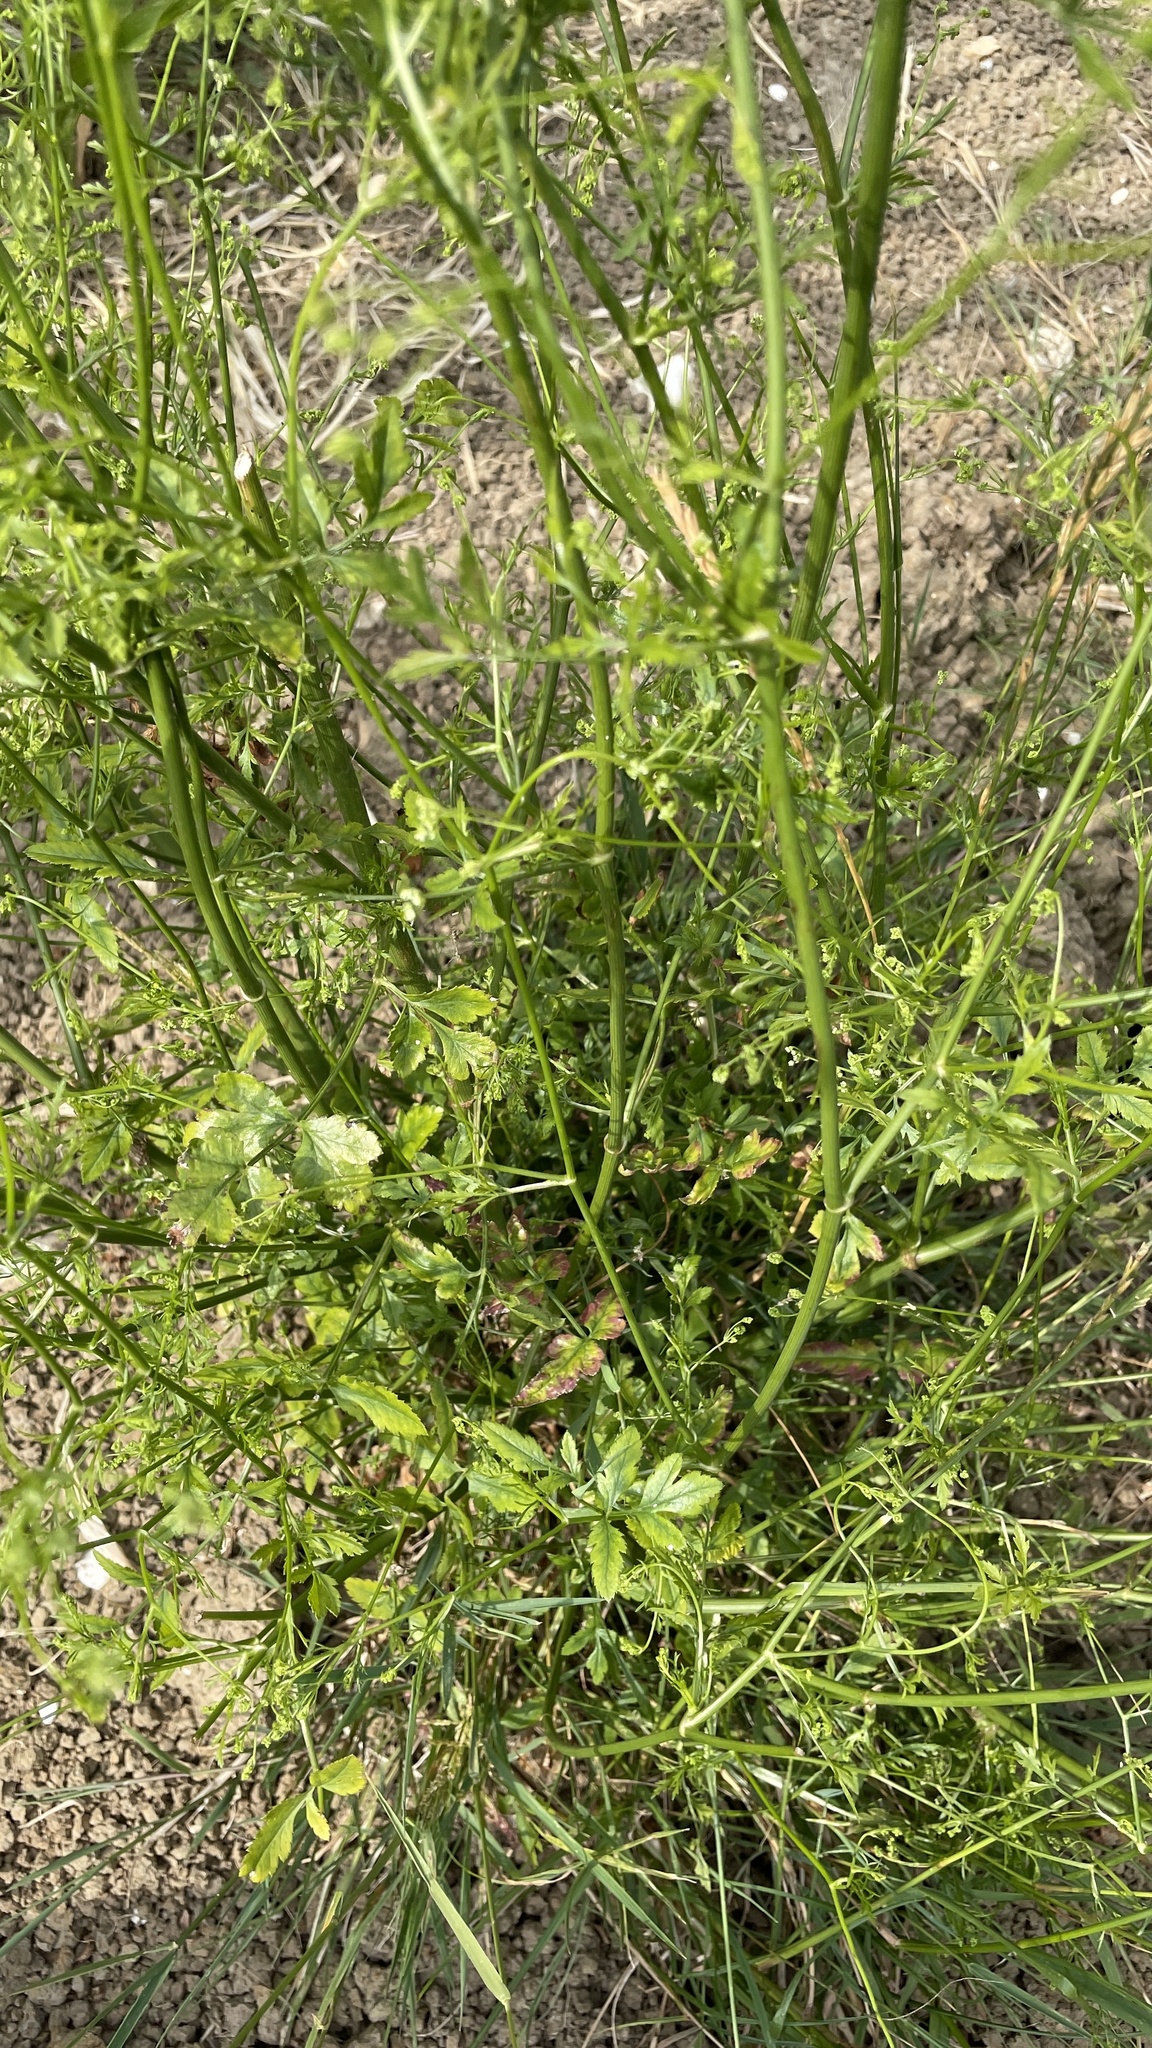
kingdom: Plantae
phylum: Tracheophyta
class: Magnoliopsida
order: Apiales
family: Apiaceae
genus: Sison
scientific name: Sison amomum
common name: Stone-parsley
